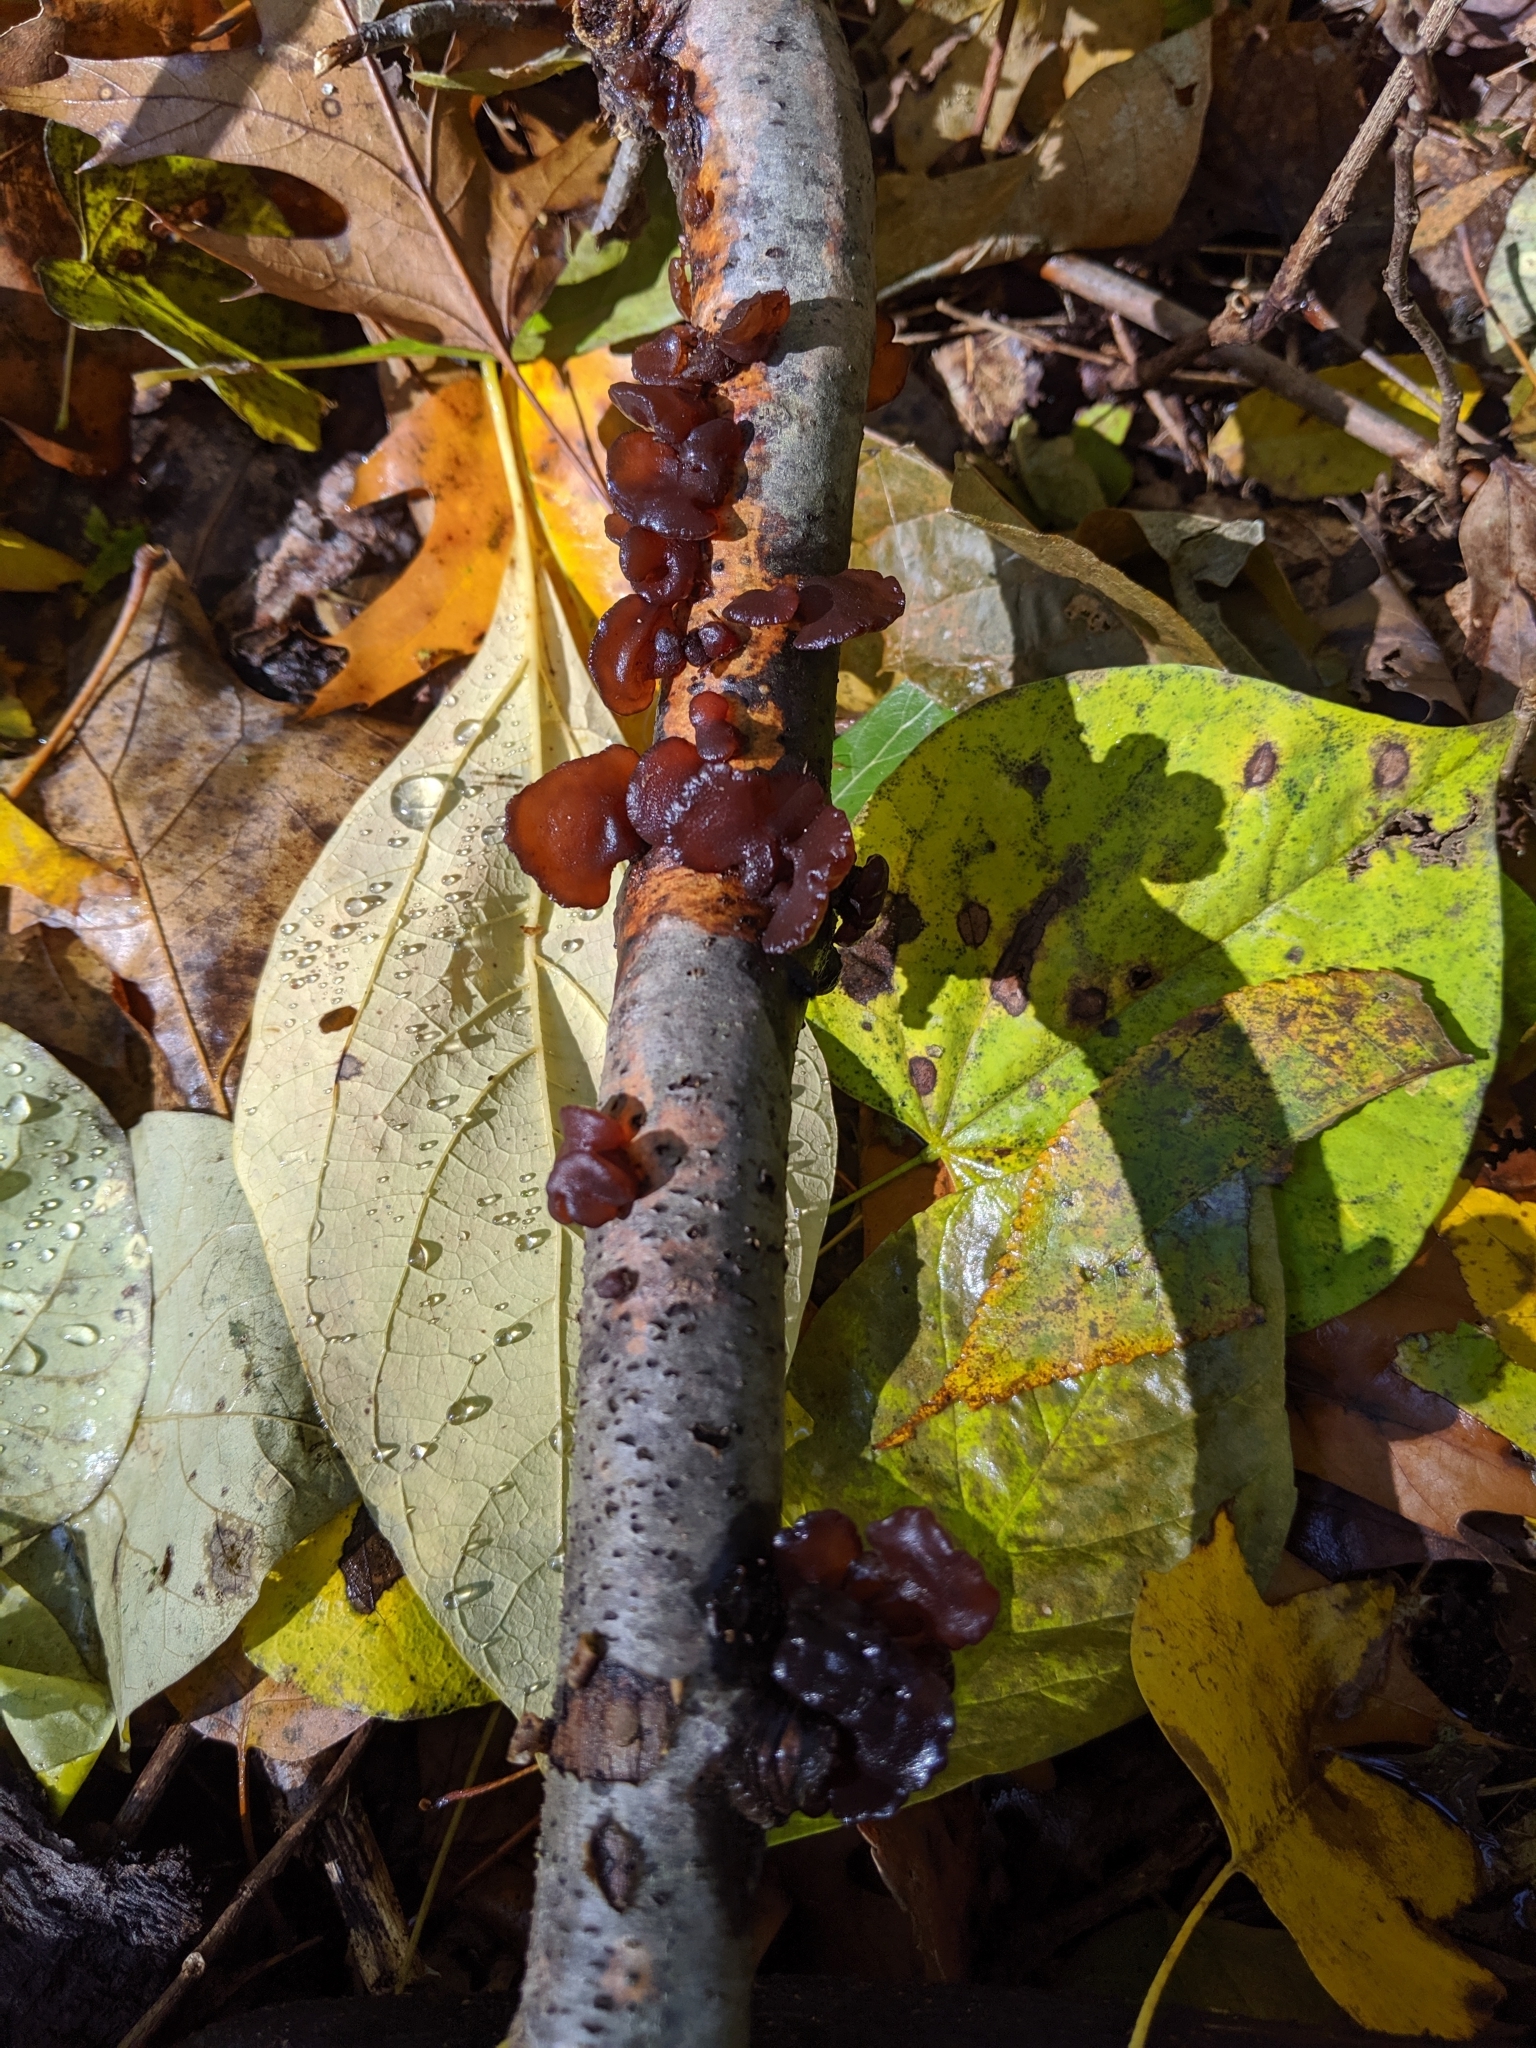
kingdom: Fungi
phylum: Basidiomycota
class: Agaricomycetes
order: Auriculariales
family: Auriculariaceae
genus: Exidia
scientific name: Exidia
